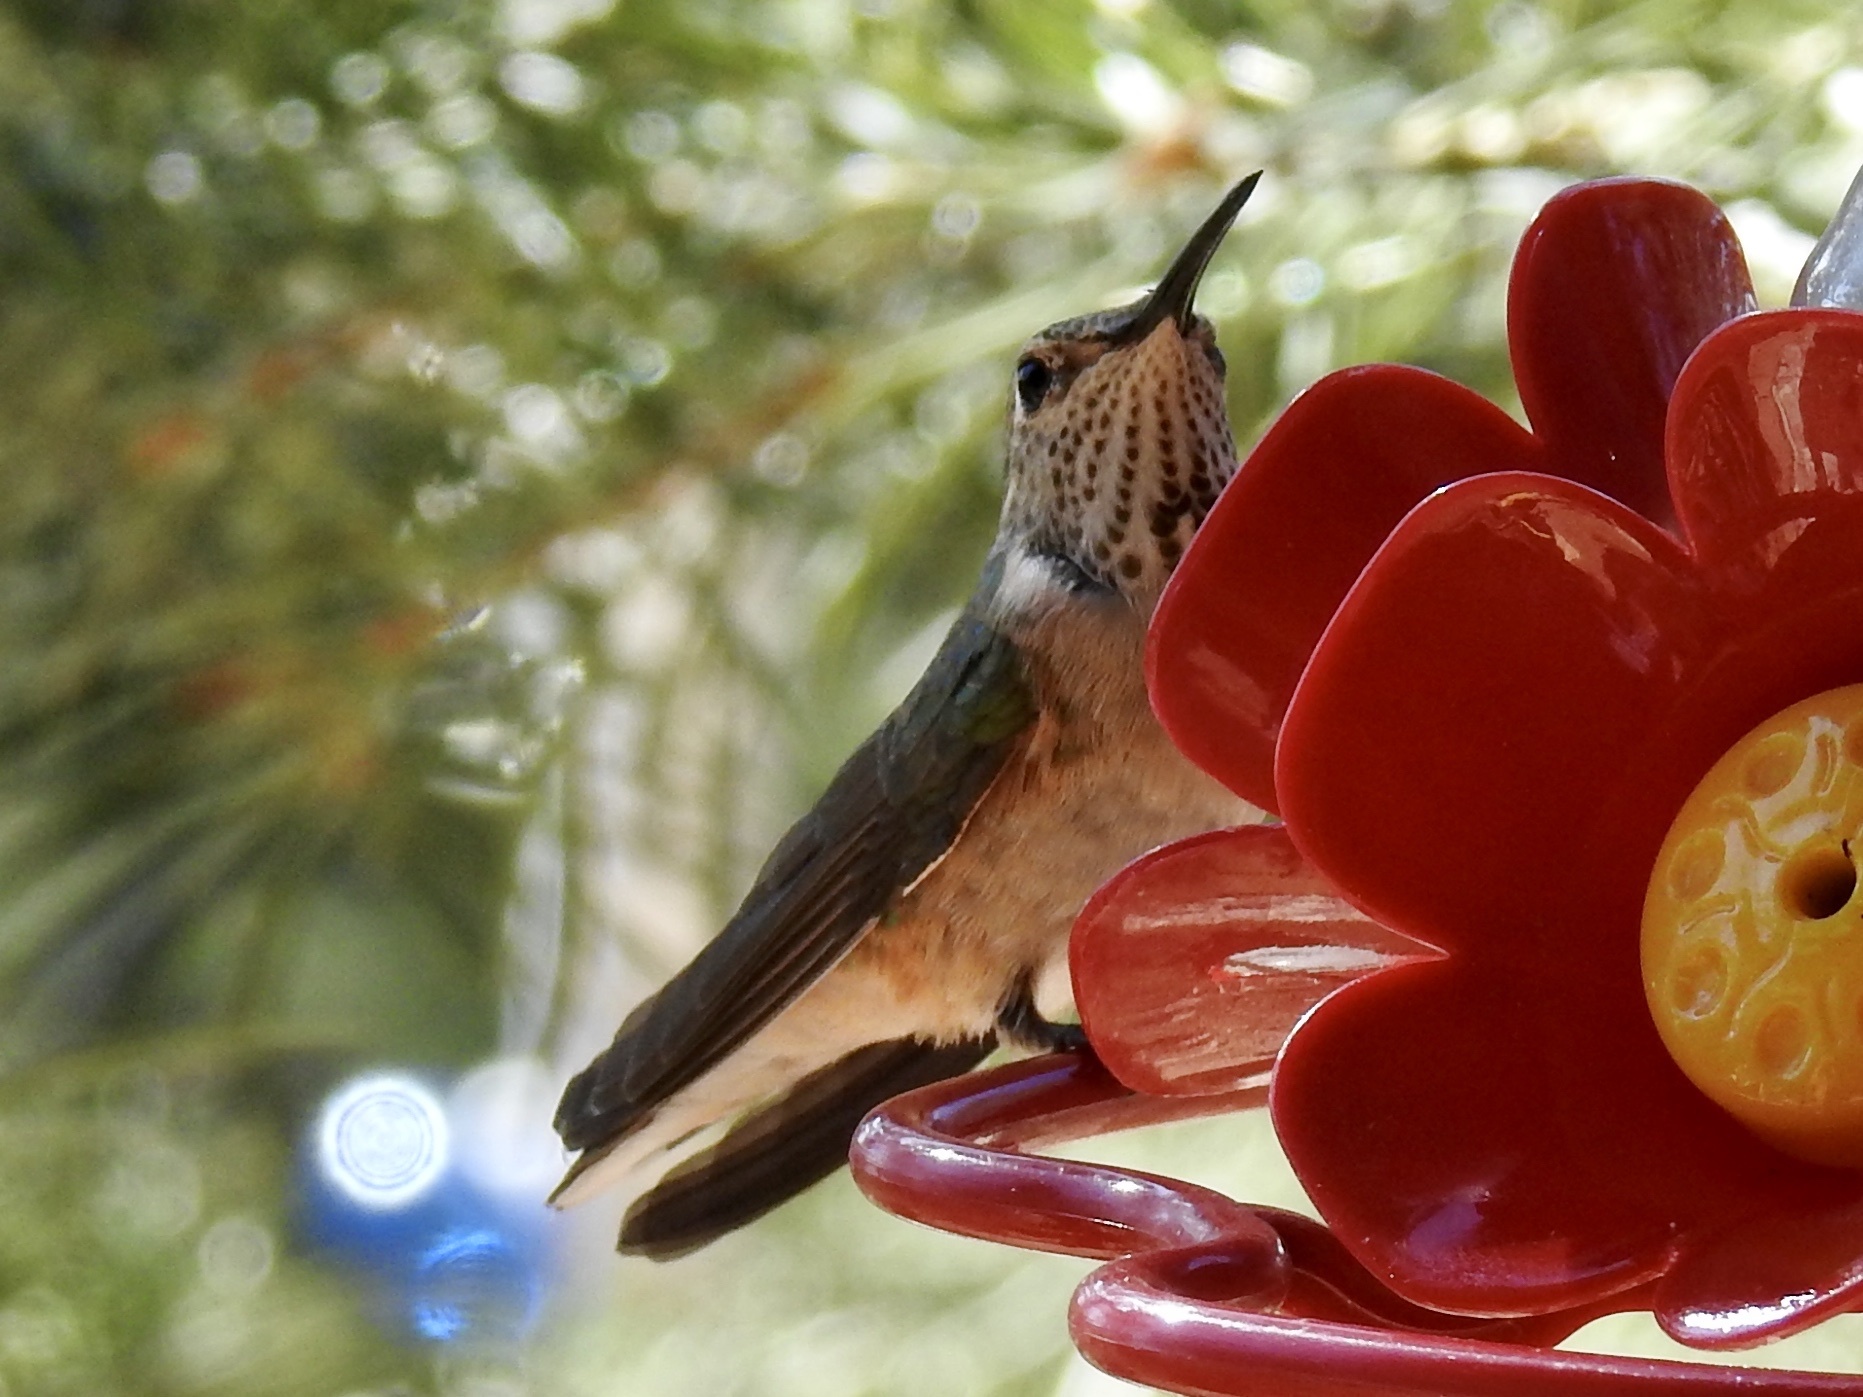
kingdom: Animalia
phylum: Chordata
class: Aves
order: Apodiformes
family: Trochilidae
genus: Selasphorus
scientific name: Selasphorus platycercus
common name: Broad-tailed hummingbird
